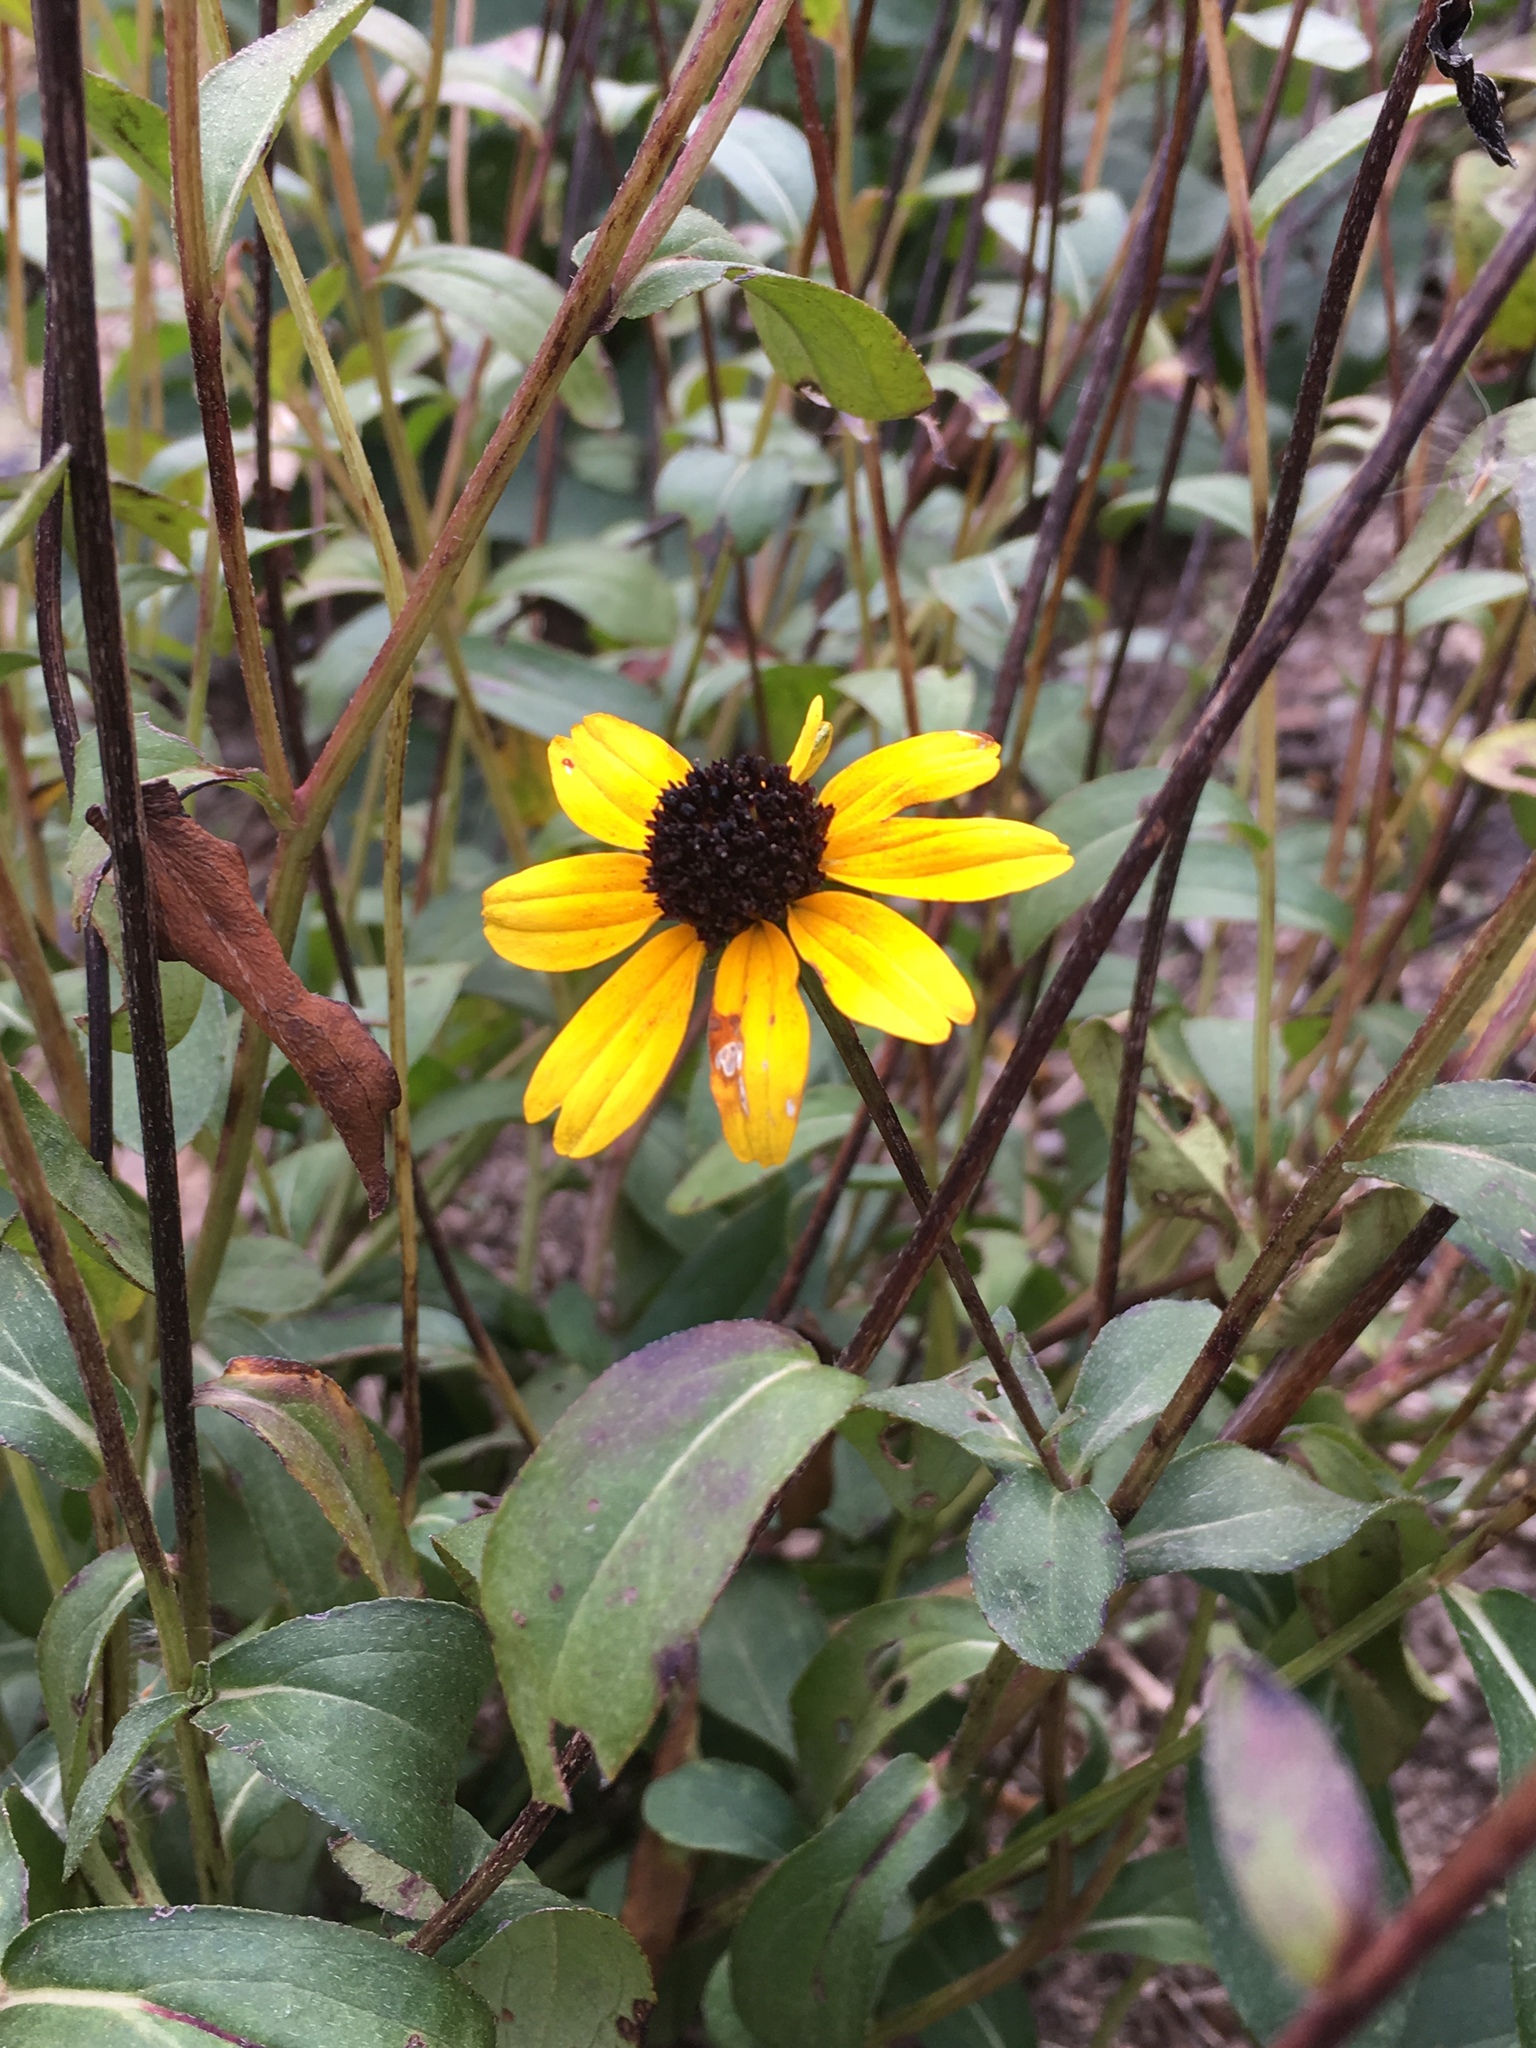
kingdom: Plantae
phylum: Tracheophyta
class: Magnoliopsida
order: Asterales
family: Asteraceae
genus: Rudbeckia
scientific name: Rudbeckia hirta
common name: Black-eyed-susan
